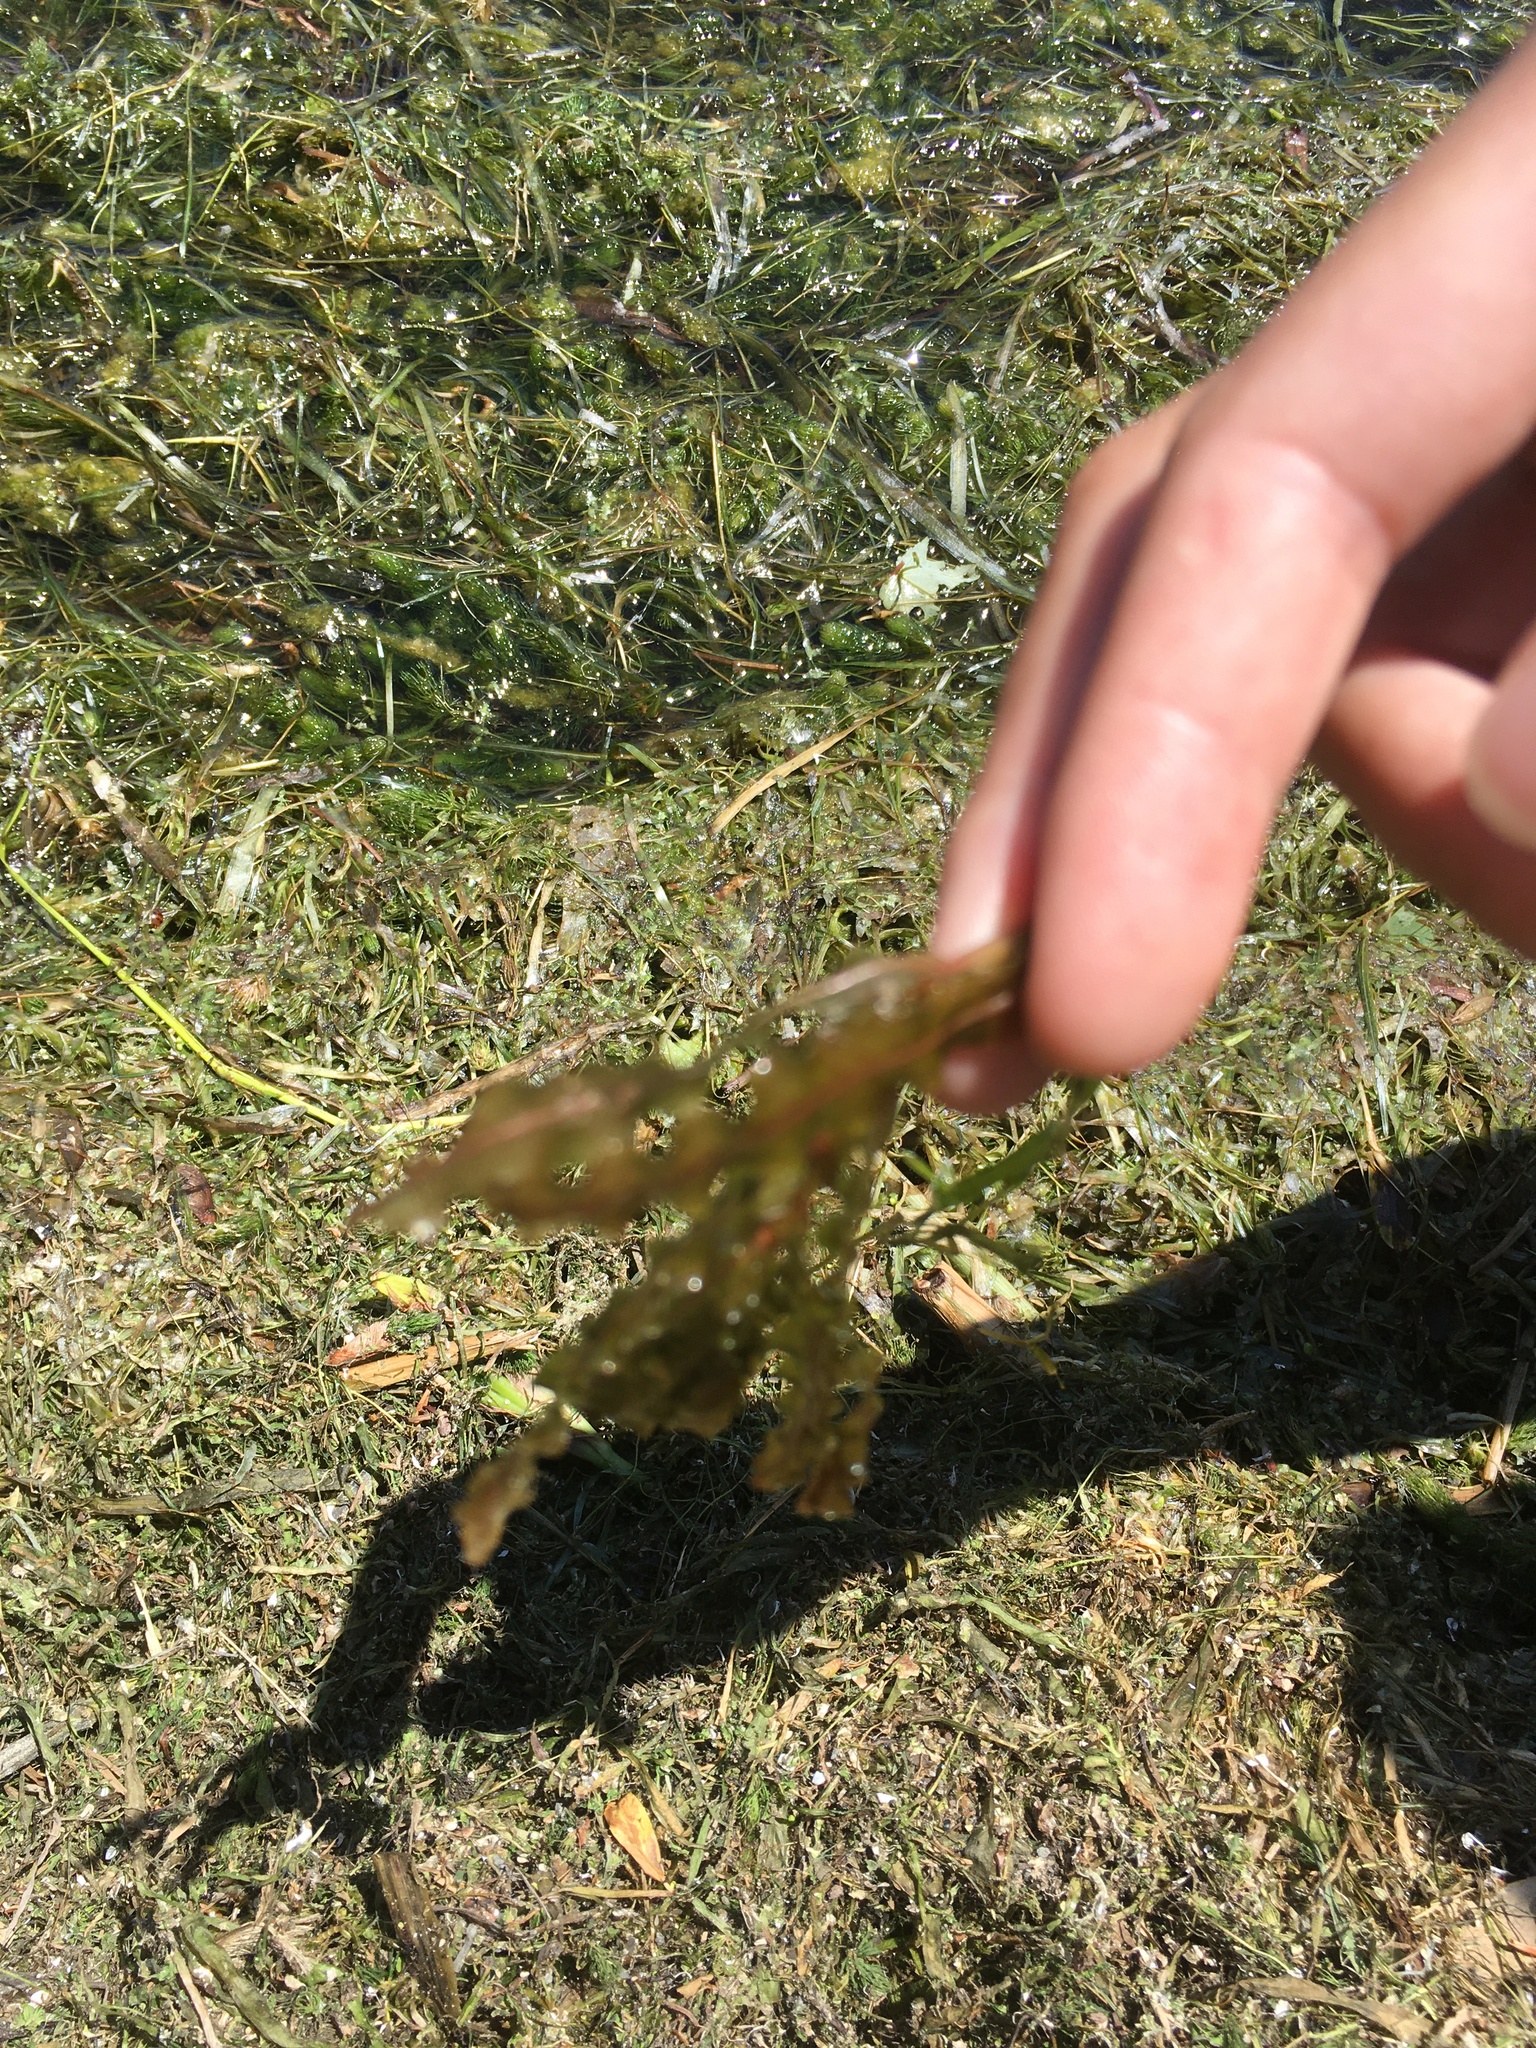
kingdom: Plantae
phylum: Tracheophyta
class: Liliopsida
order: Alismatales
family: Potamogetonaceae
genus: Potamogeton
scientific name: Potamogeton crispus
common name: Curled pondweed
